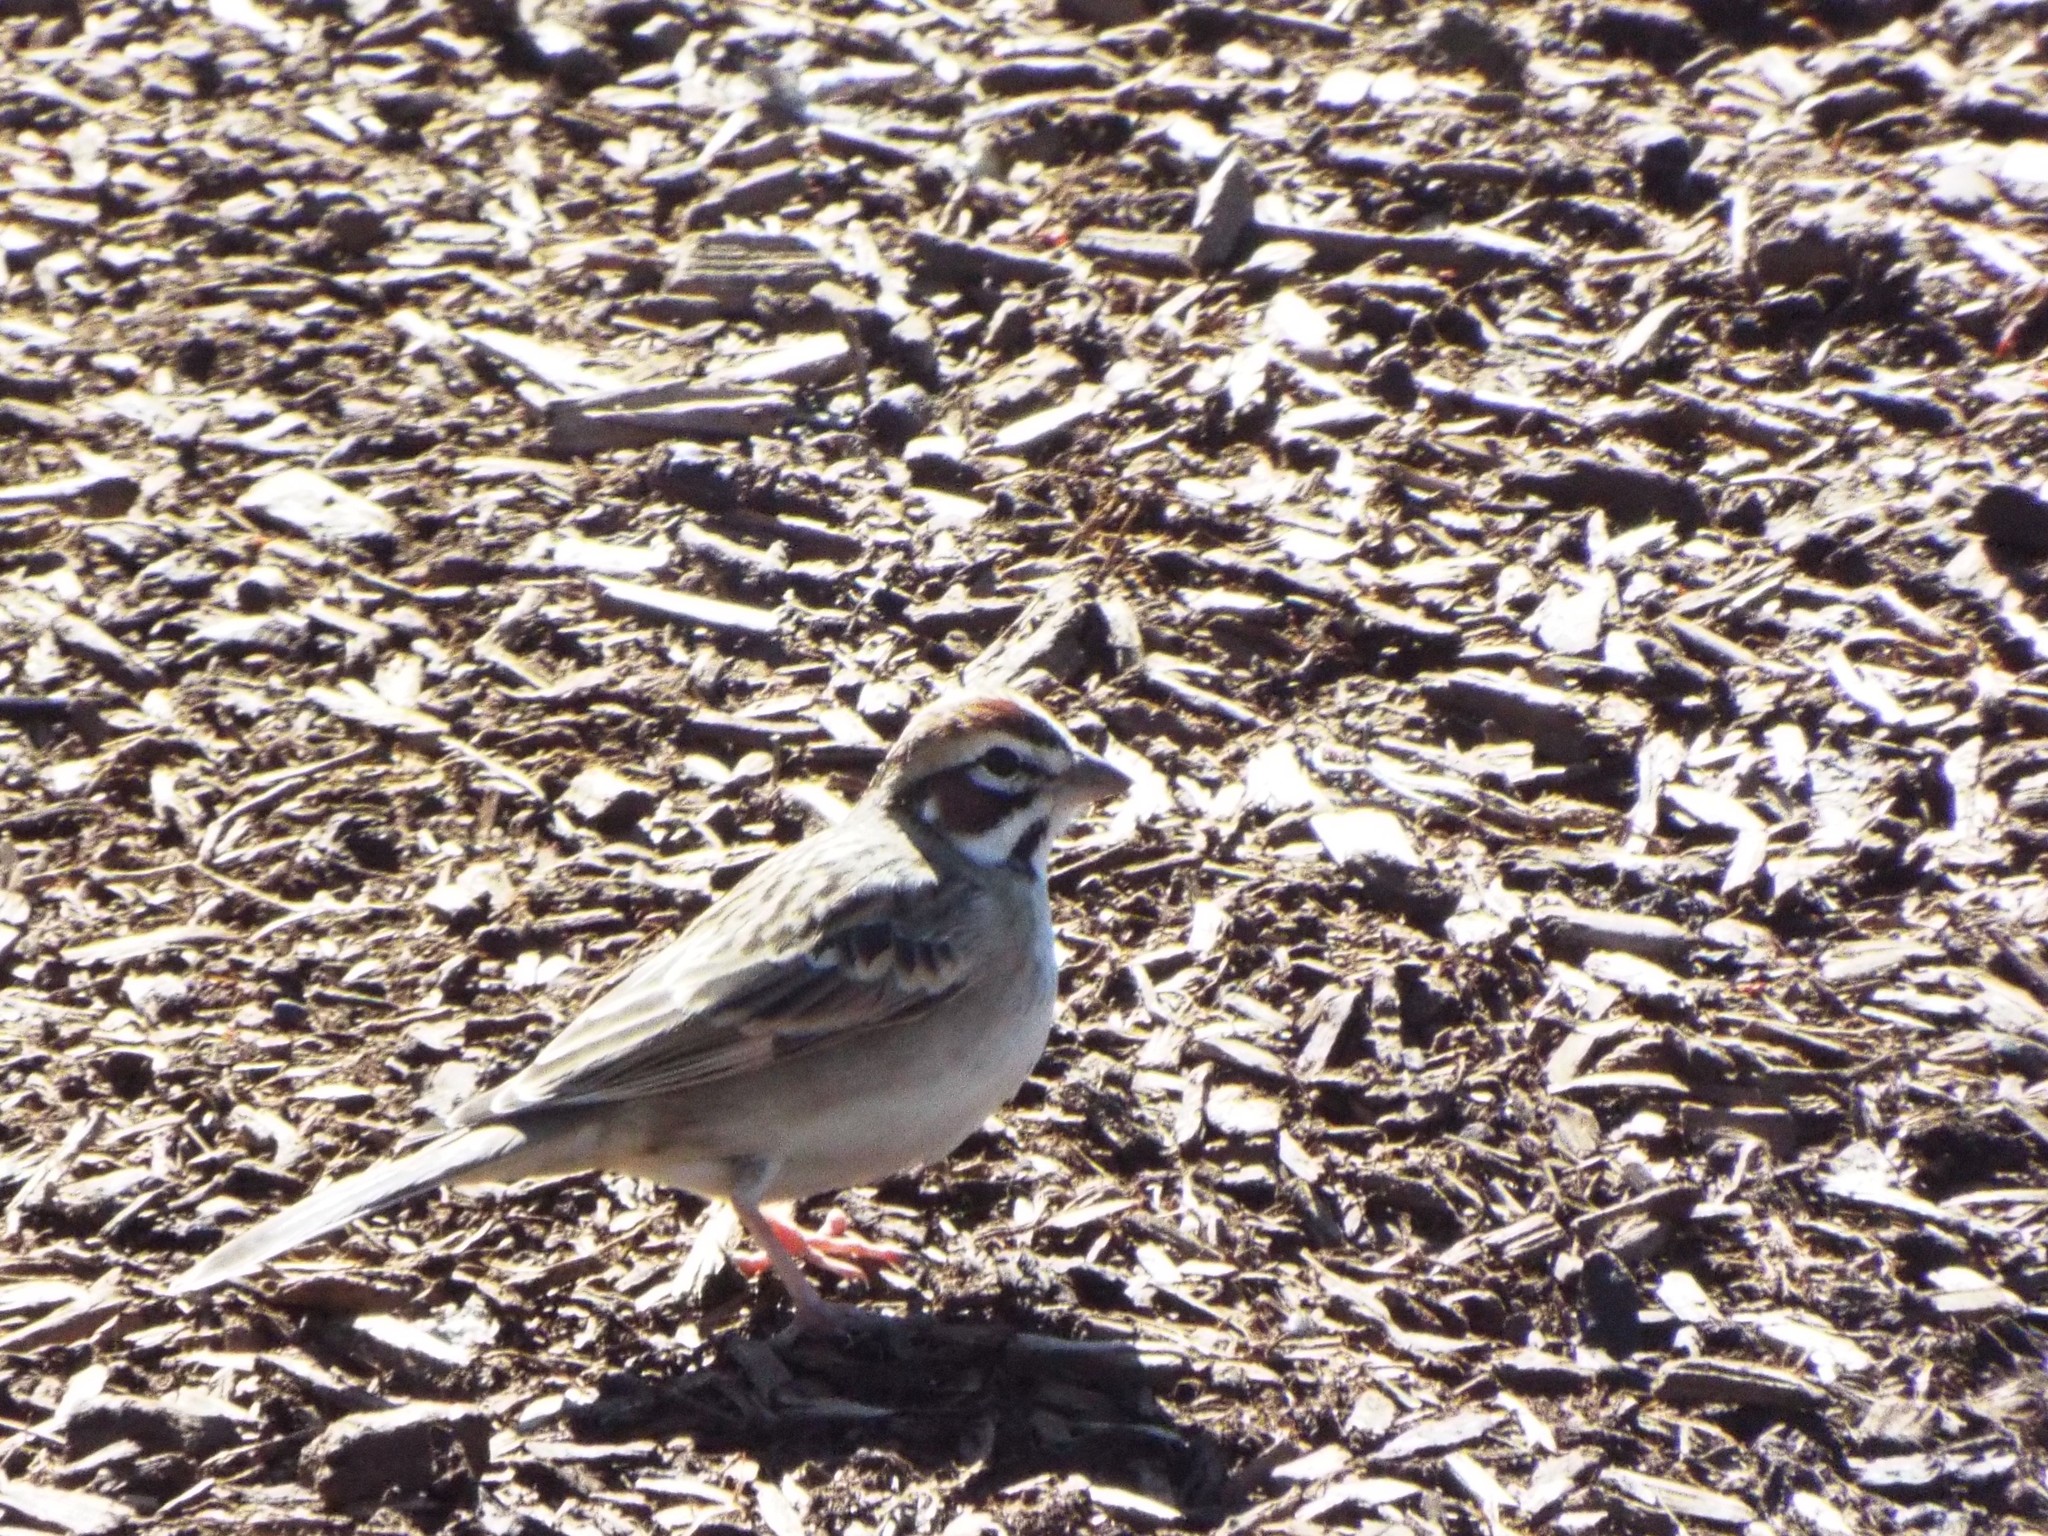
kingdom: Animalia
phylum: Chordata
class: Aves
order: Passeriformes
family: Passerellidae
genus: Chondestes
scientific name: Chondestes grammacus
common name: Lark sparrow
